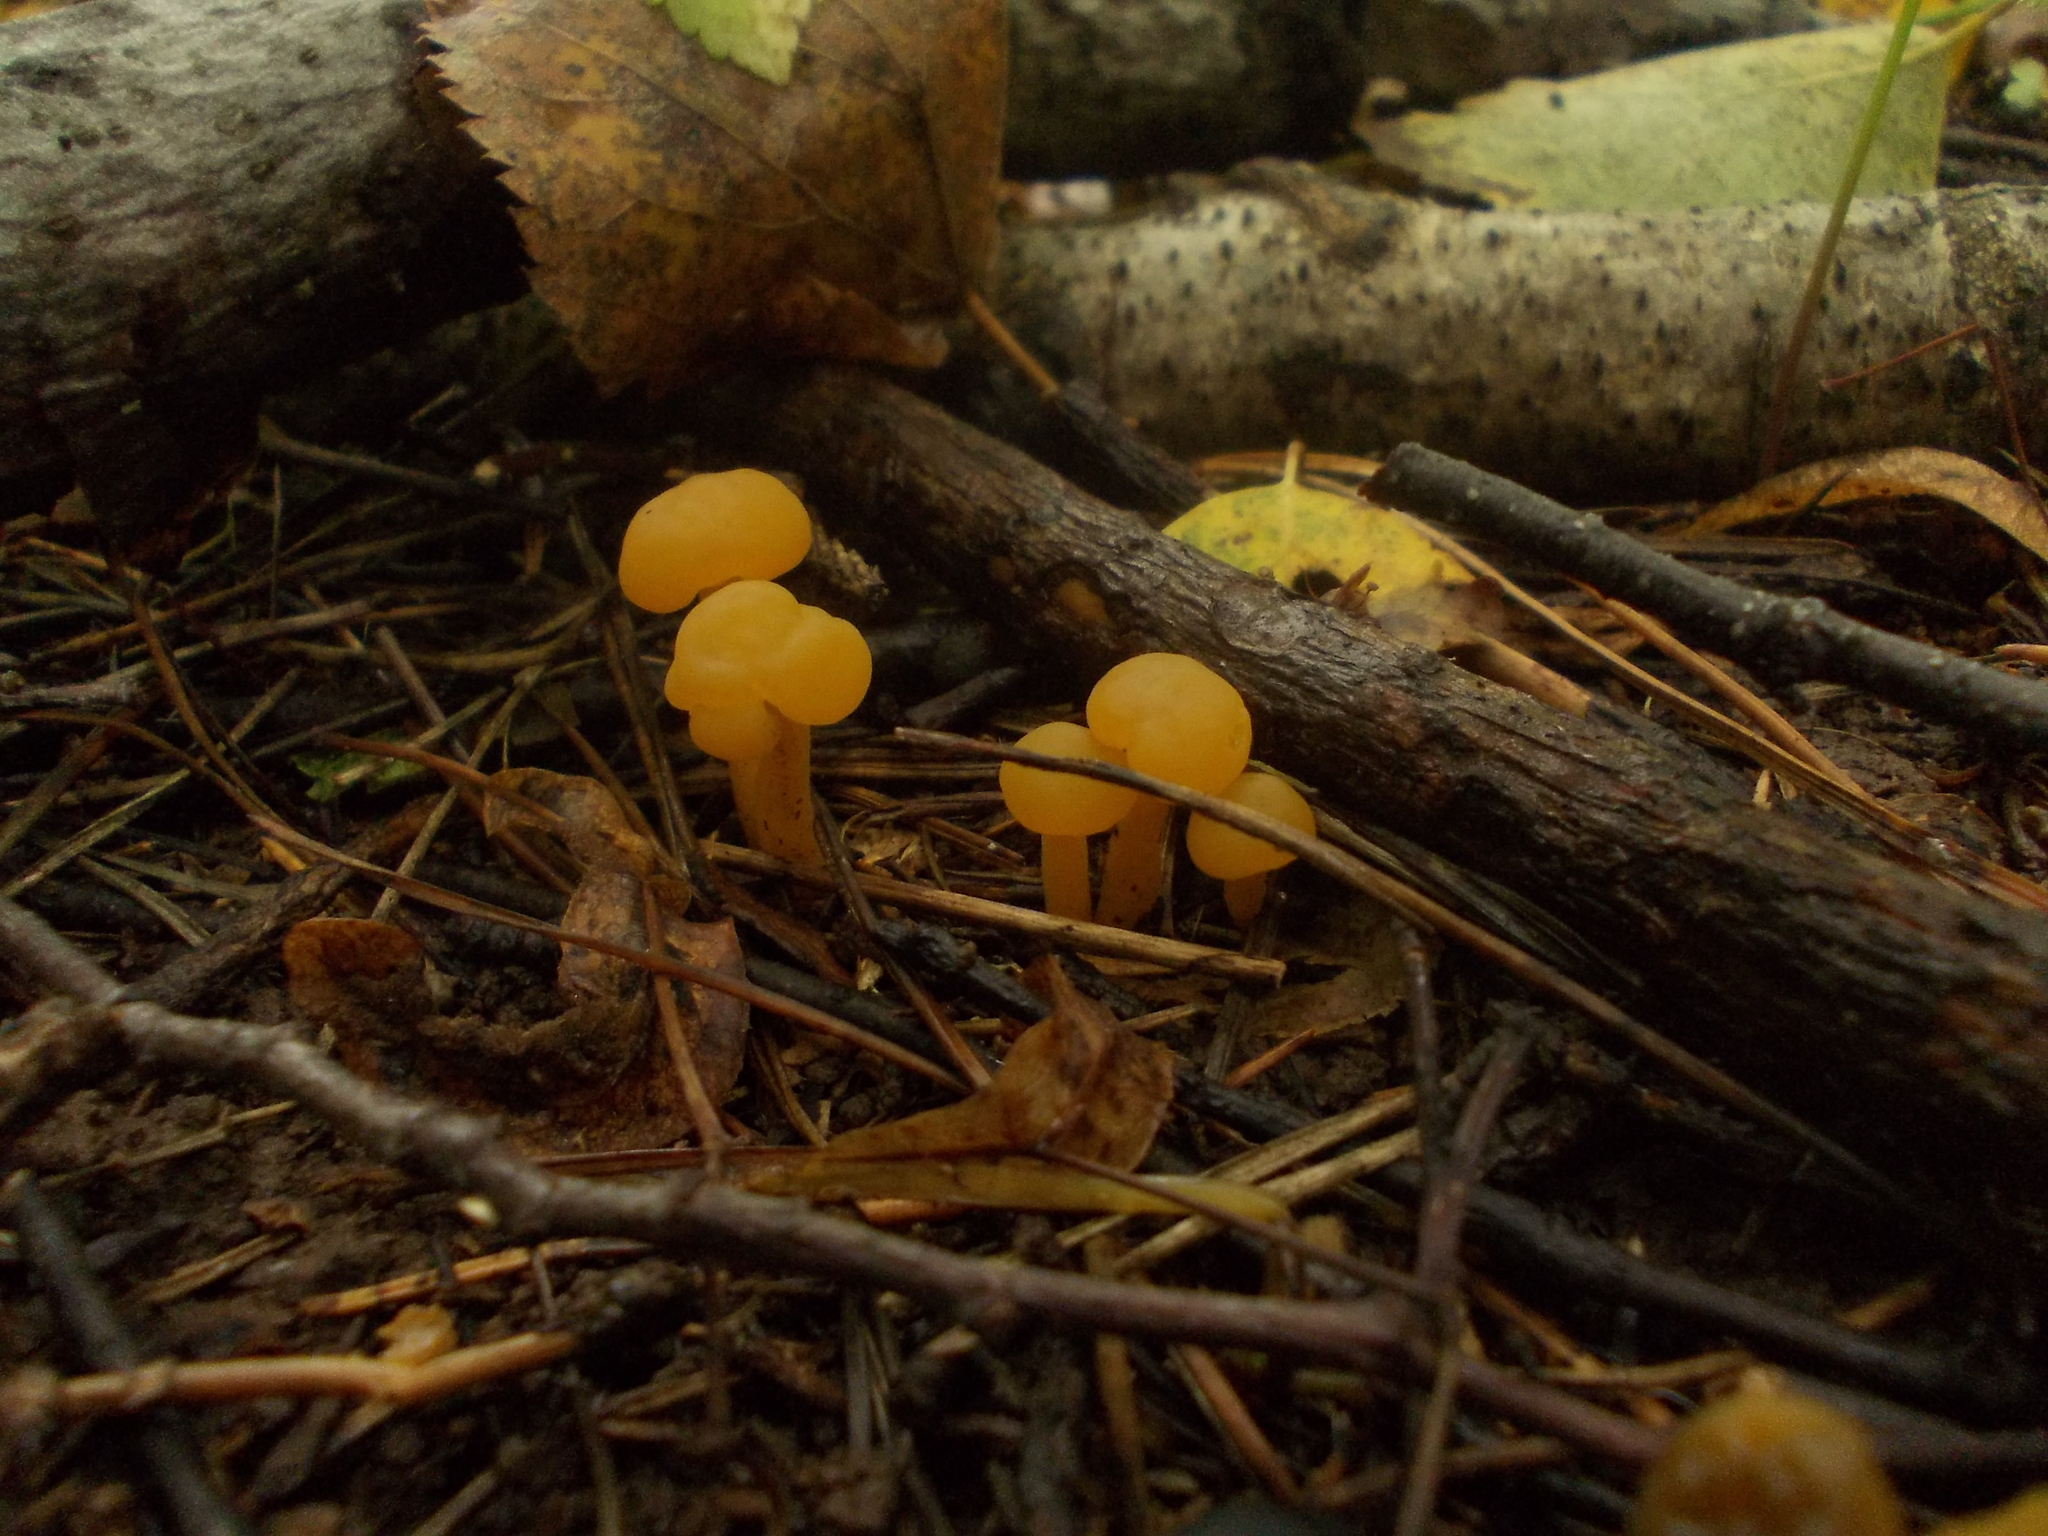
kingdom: Fungi
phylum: Ascomycota
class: Leotiomycetes
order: Leotiales
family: Leotiaceae
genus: Leotia
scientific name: Leotia lubrica
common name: Jellybaby
